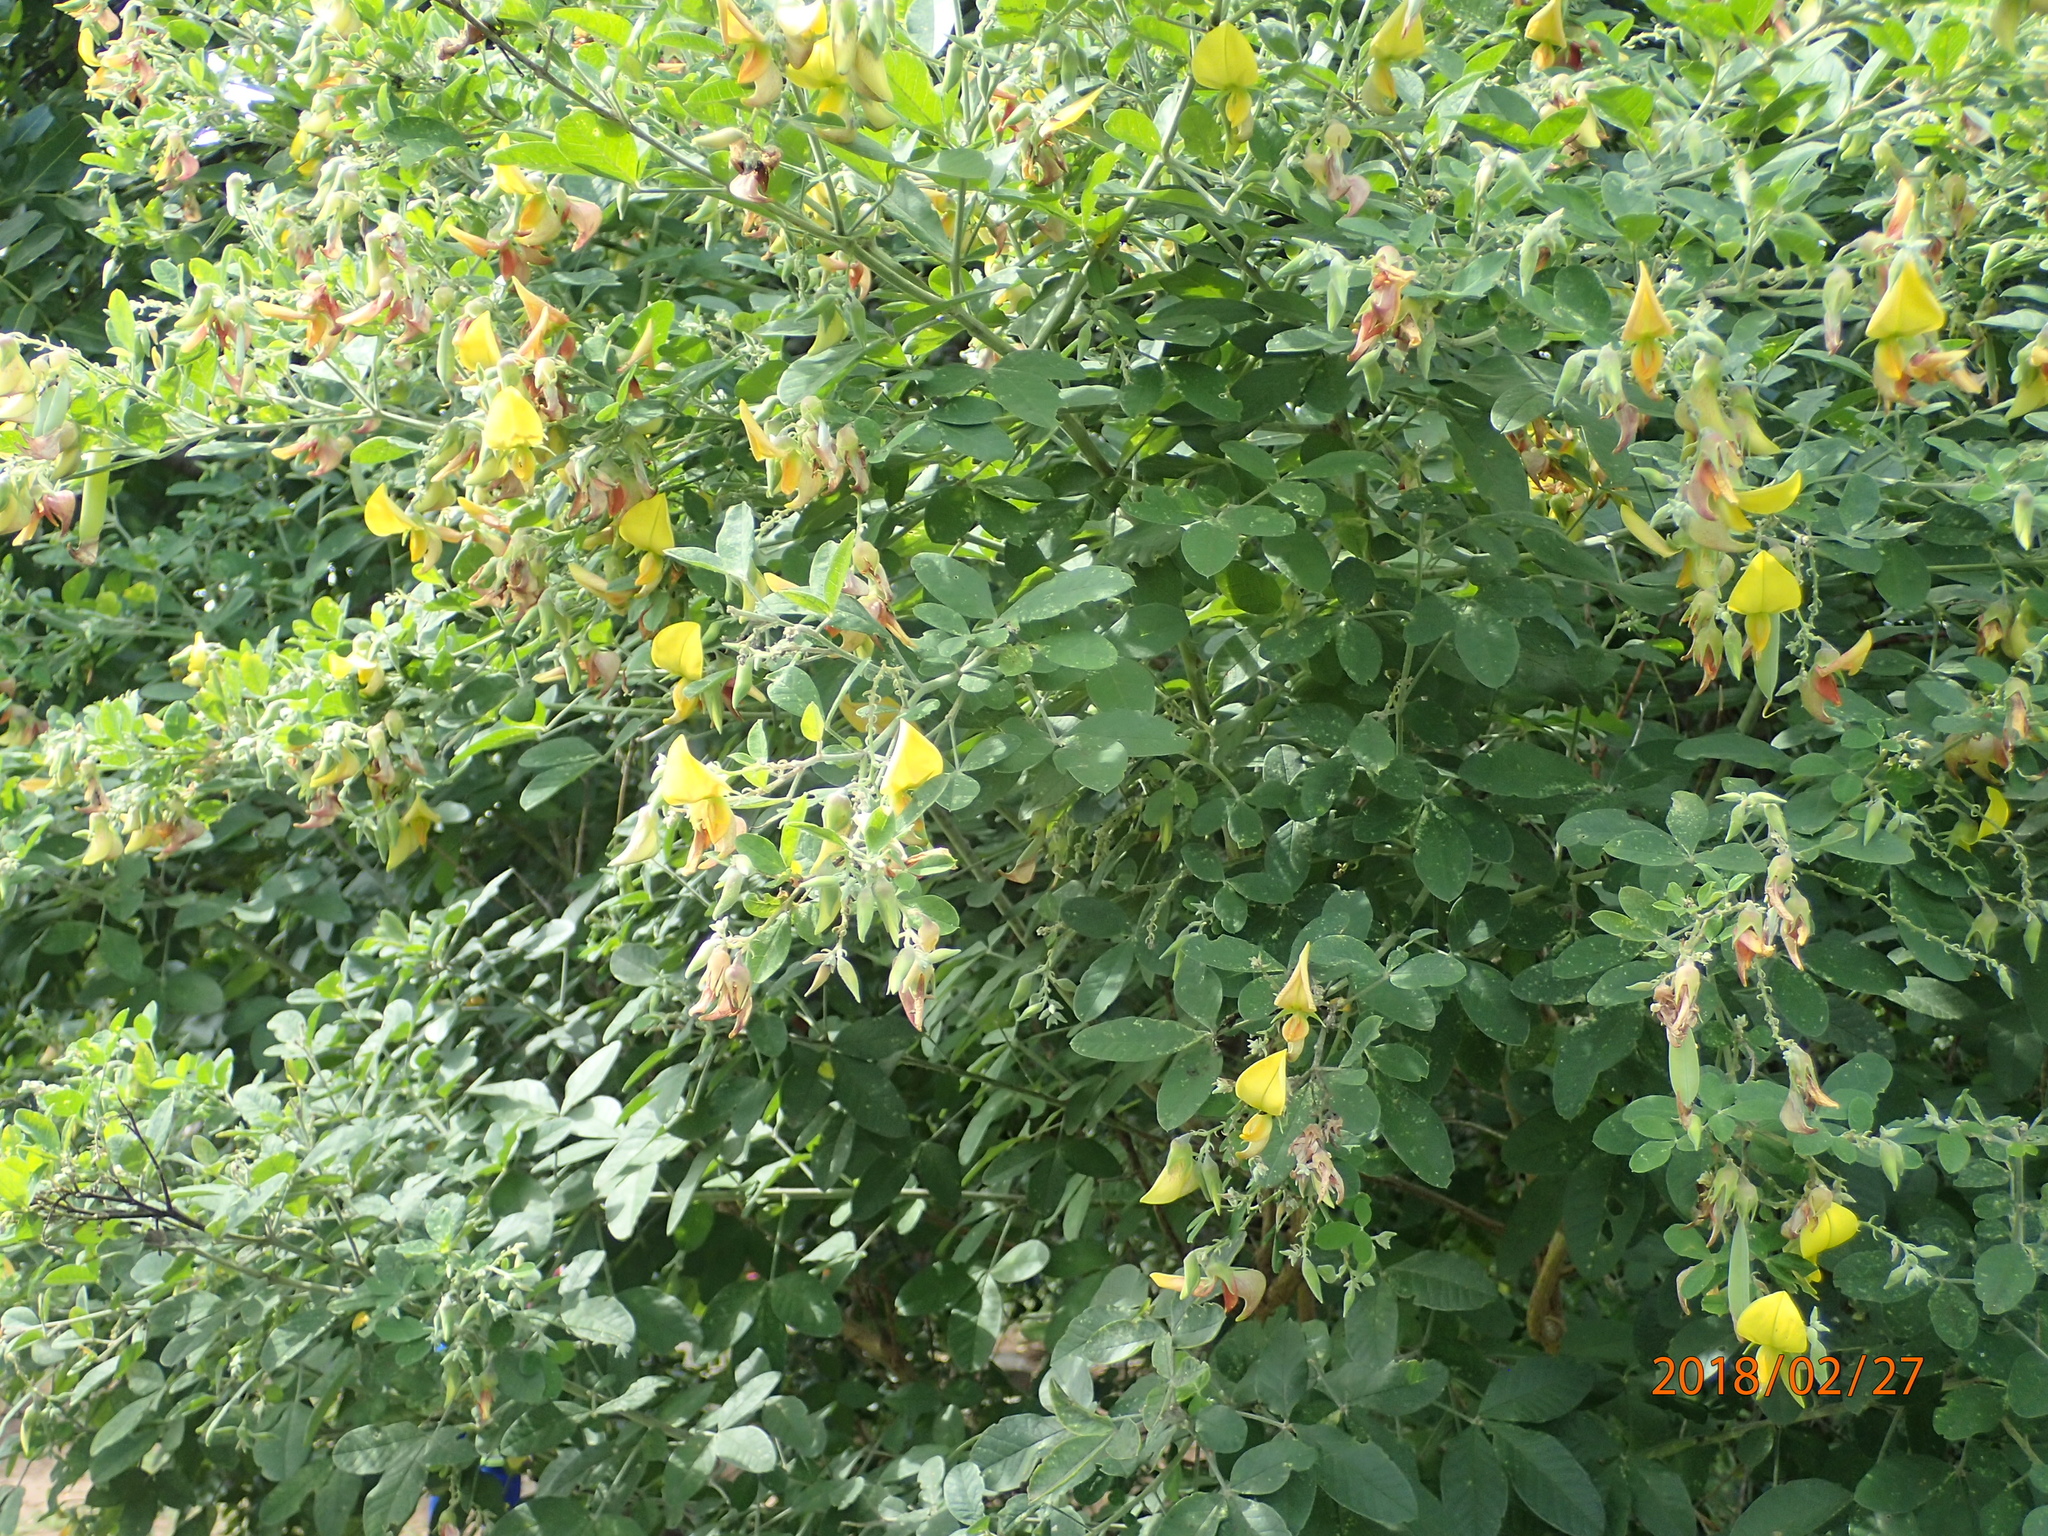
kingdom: Plantae
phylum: Tracheophyta
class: Magnoliopsida
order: Fabales
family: Fabaceae
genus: Crotalaria
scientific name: Crotalaria capensis
